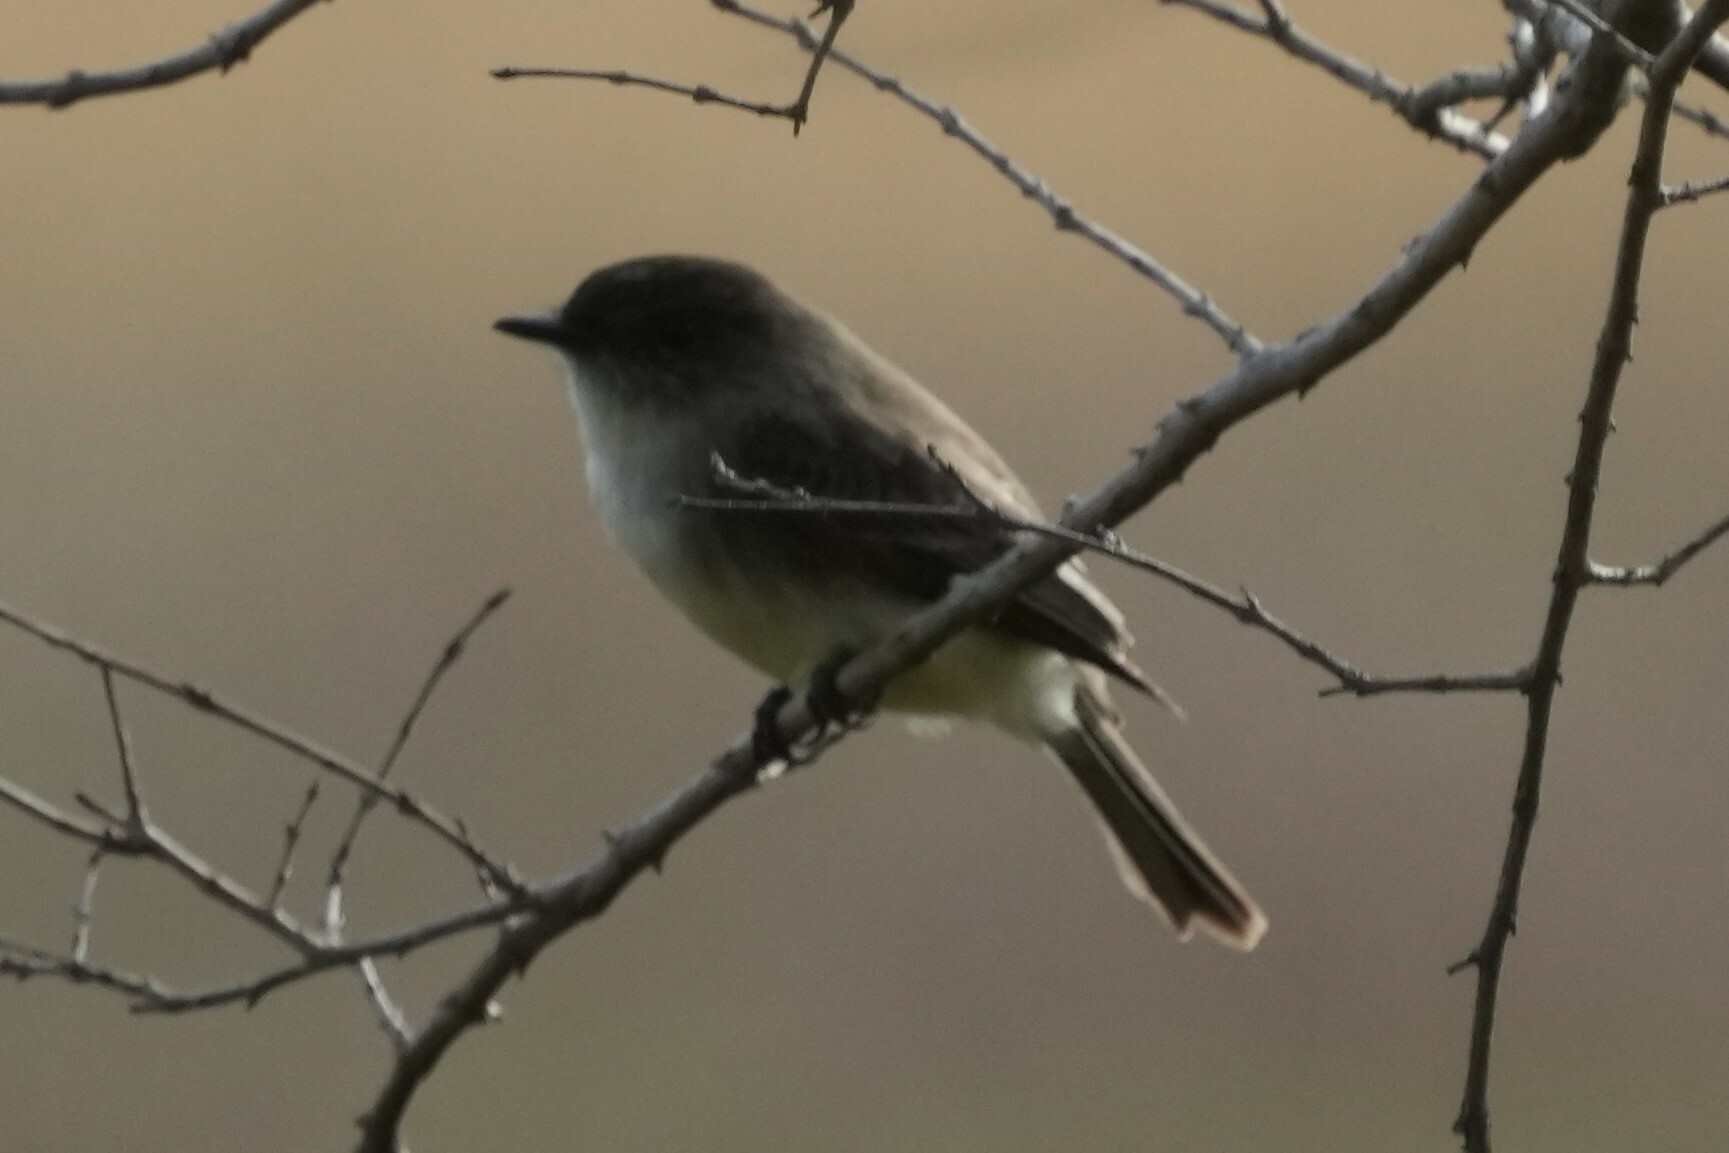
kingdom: Animalia
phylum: Chordata
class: Aves
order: Passeriformes
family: Tyrannidae
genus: Sayornis
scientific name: Sayornis phoebe
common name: Eastern phoebe
